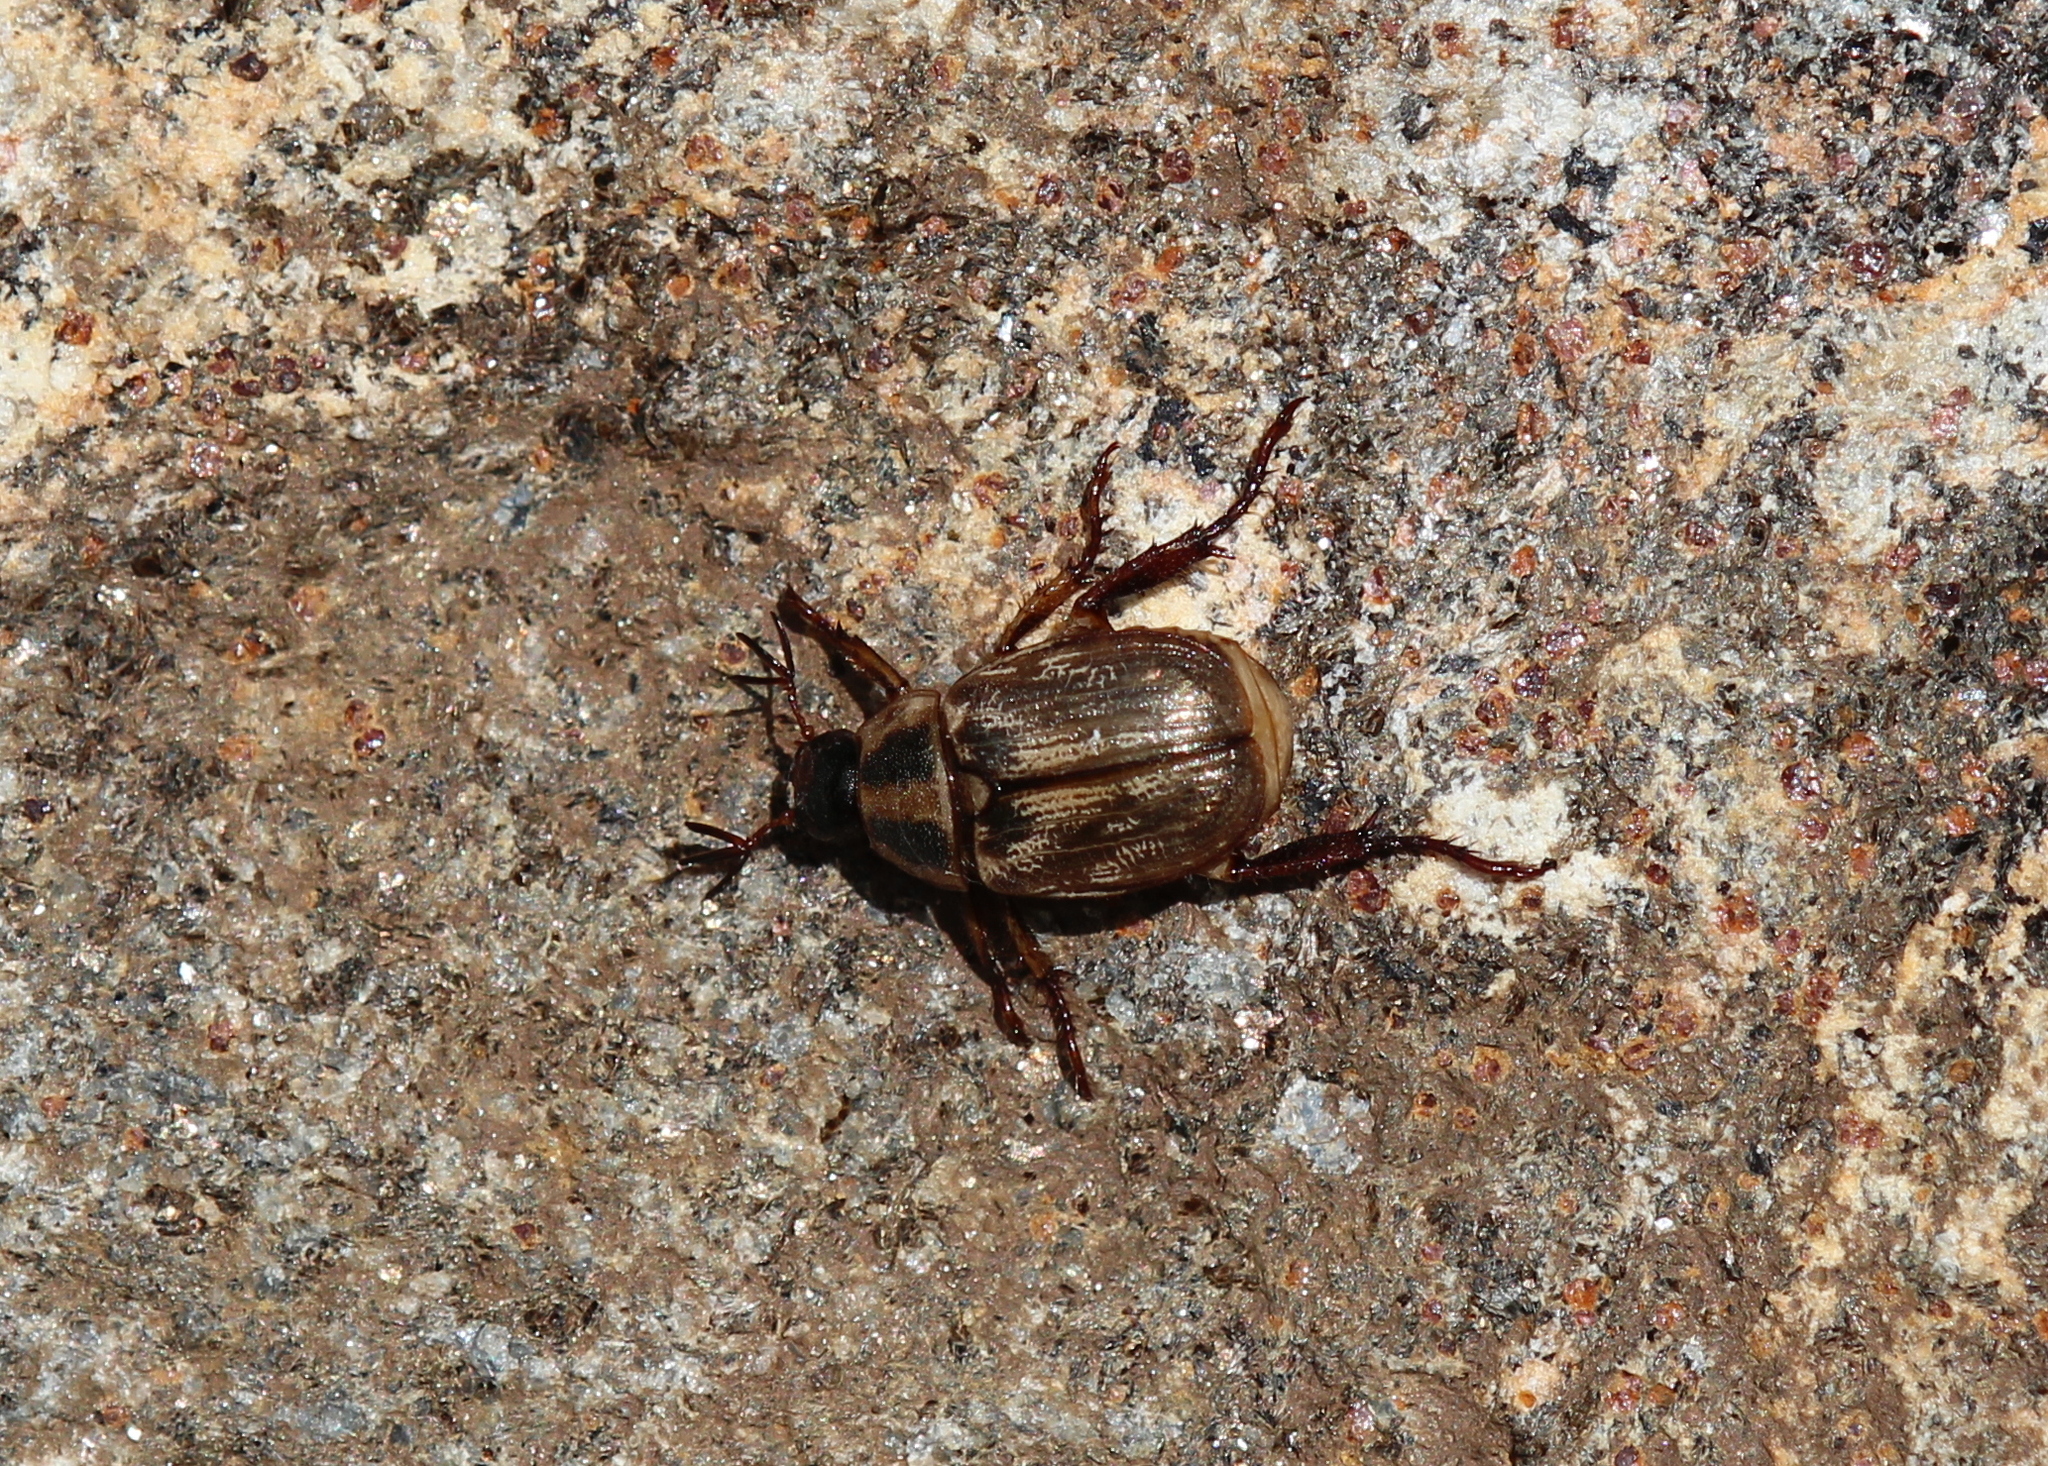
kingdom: Animalia
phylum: Arthropoda
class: Insecta
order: Coleoptera
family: Scarabaeidae
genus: Exomala
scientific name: Exomala orientalis
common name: Oriental beetle
